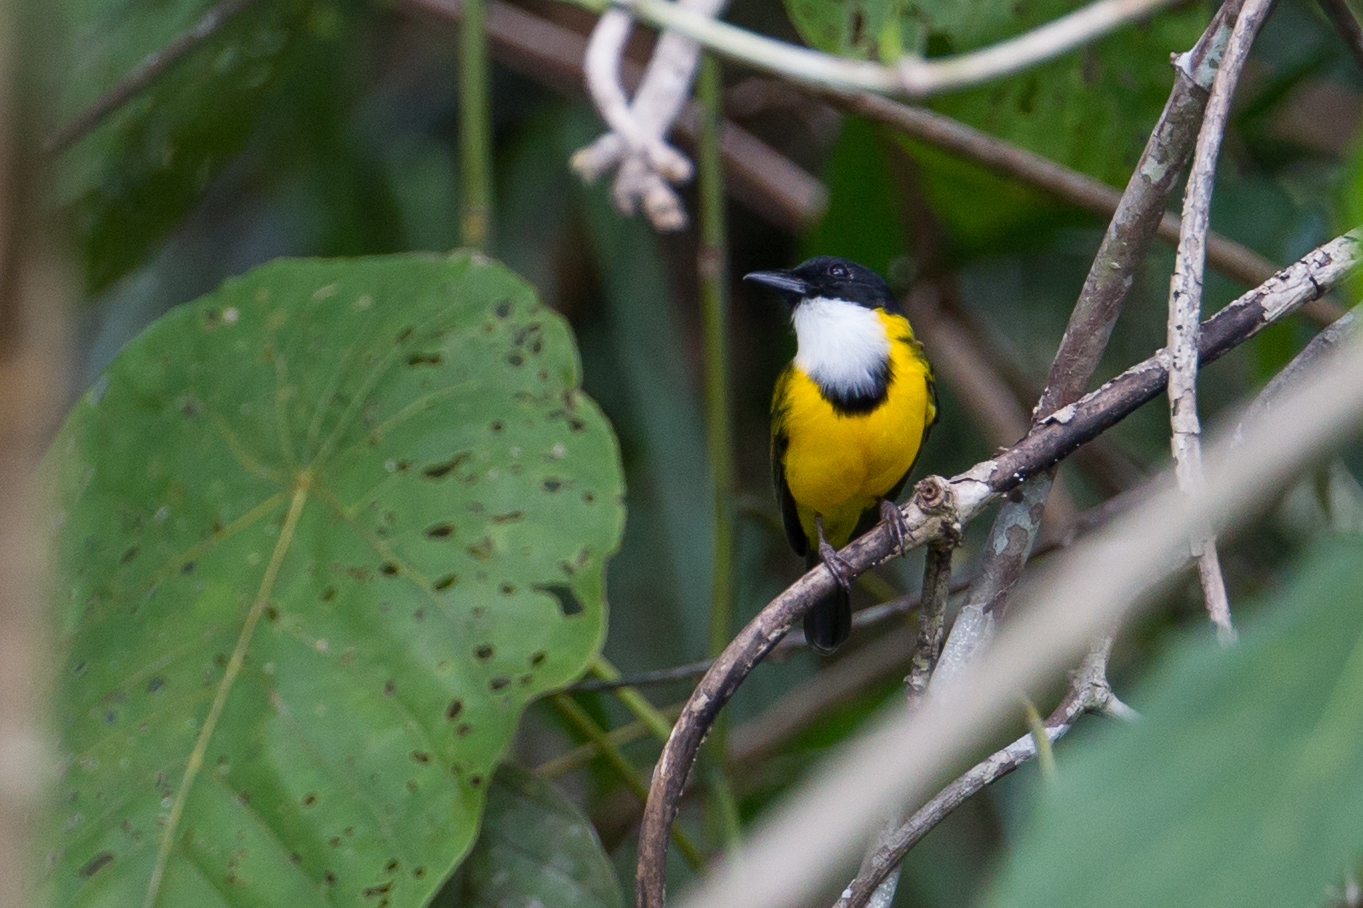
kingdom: Animalia
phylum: Chordata
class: Aves
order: Passeriformes
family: Pachycephalidae
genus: Pachycephala
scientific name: Pachycephala mentalis
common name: Black-chinned whistler
